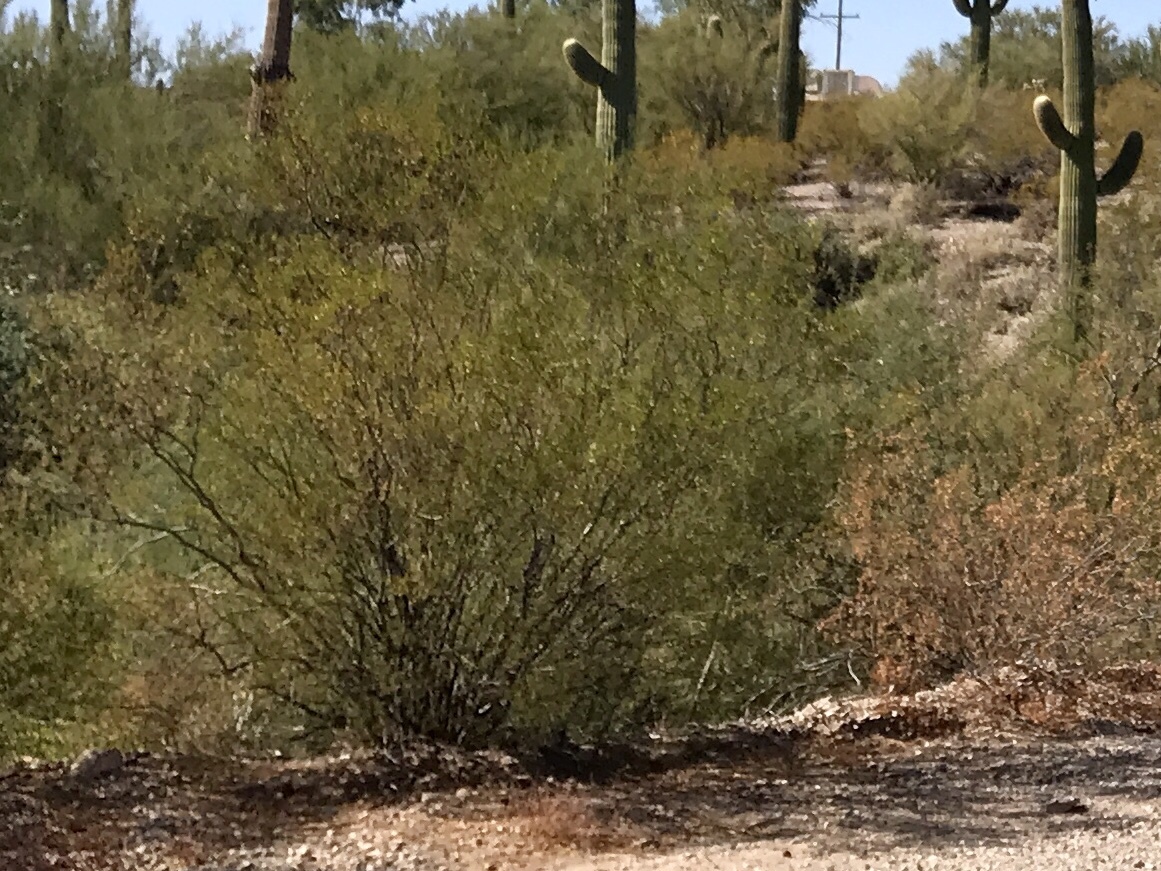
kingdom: Plantae
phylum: Tracheophyta
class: Magnoliopsida
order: Fabales
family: Fabaceae
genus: Vachellia
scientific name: Vachellia constricta
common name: Mescat acacia
